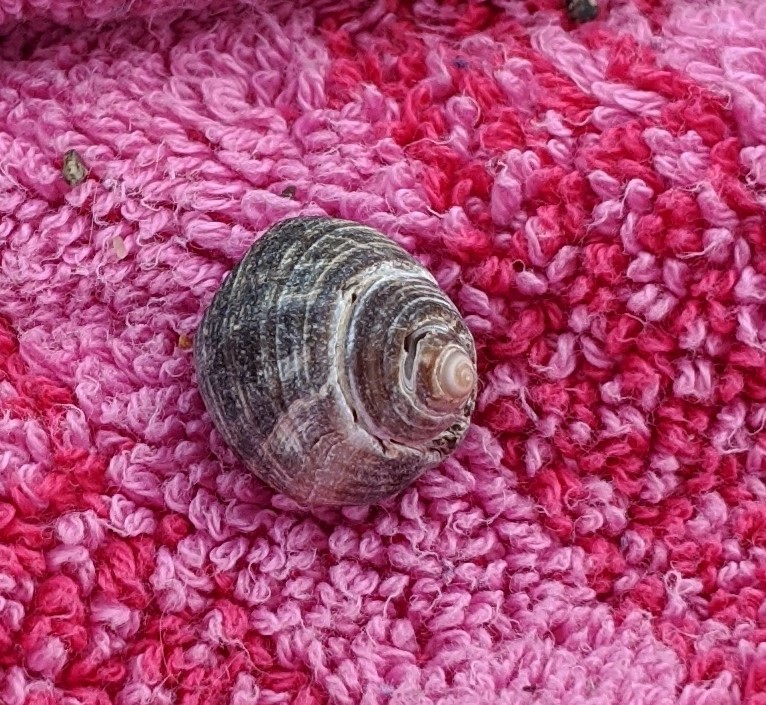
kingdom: Animalia
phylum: Mollusca
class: Gastropoda
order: Littorinimorpha
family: Littorinidae
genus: Littorina
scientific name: Littorina littorea
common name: Common periwinkle
